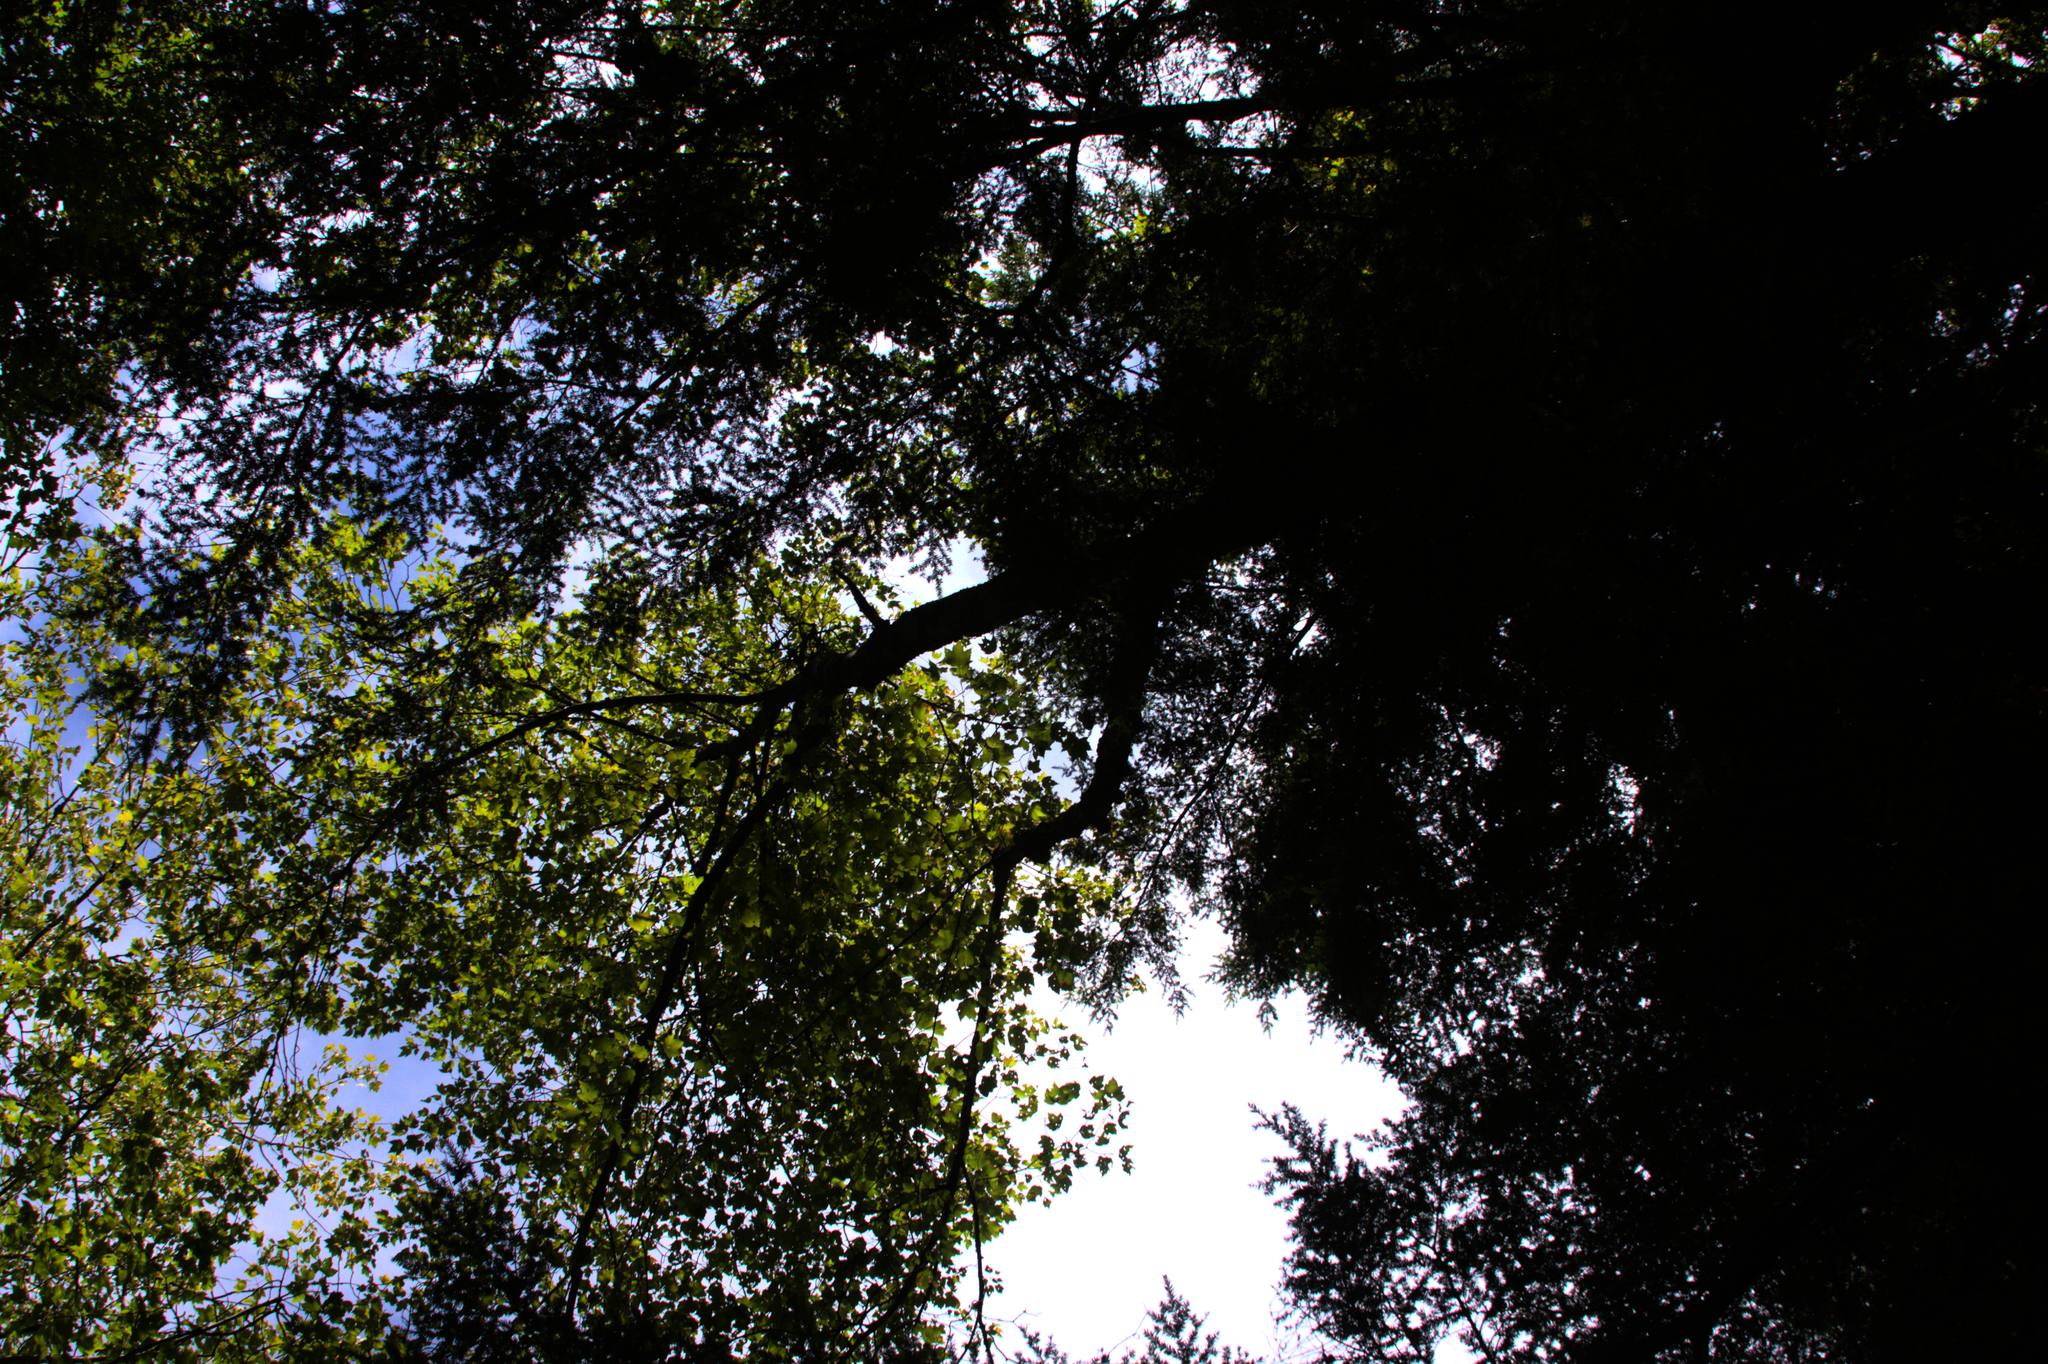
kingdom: Plantae
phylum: Tracheophyta
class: Magnoliopsida
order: Sapindales
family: Sapindaceae
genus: Acer
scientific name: Acer rubrum
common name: Red maple
